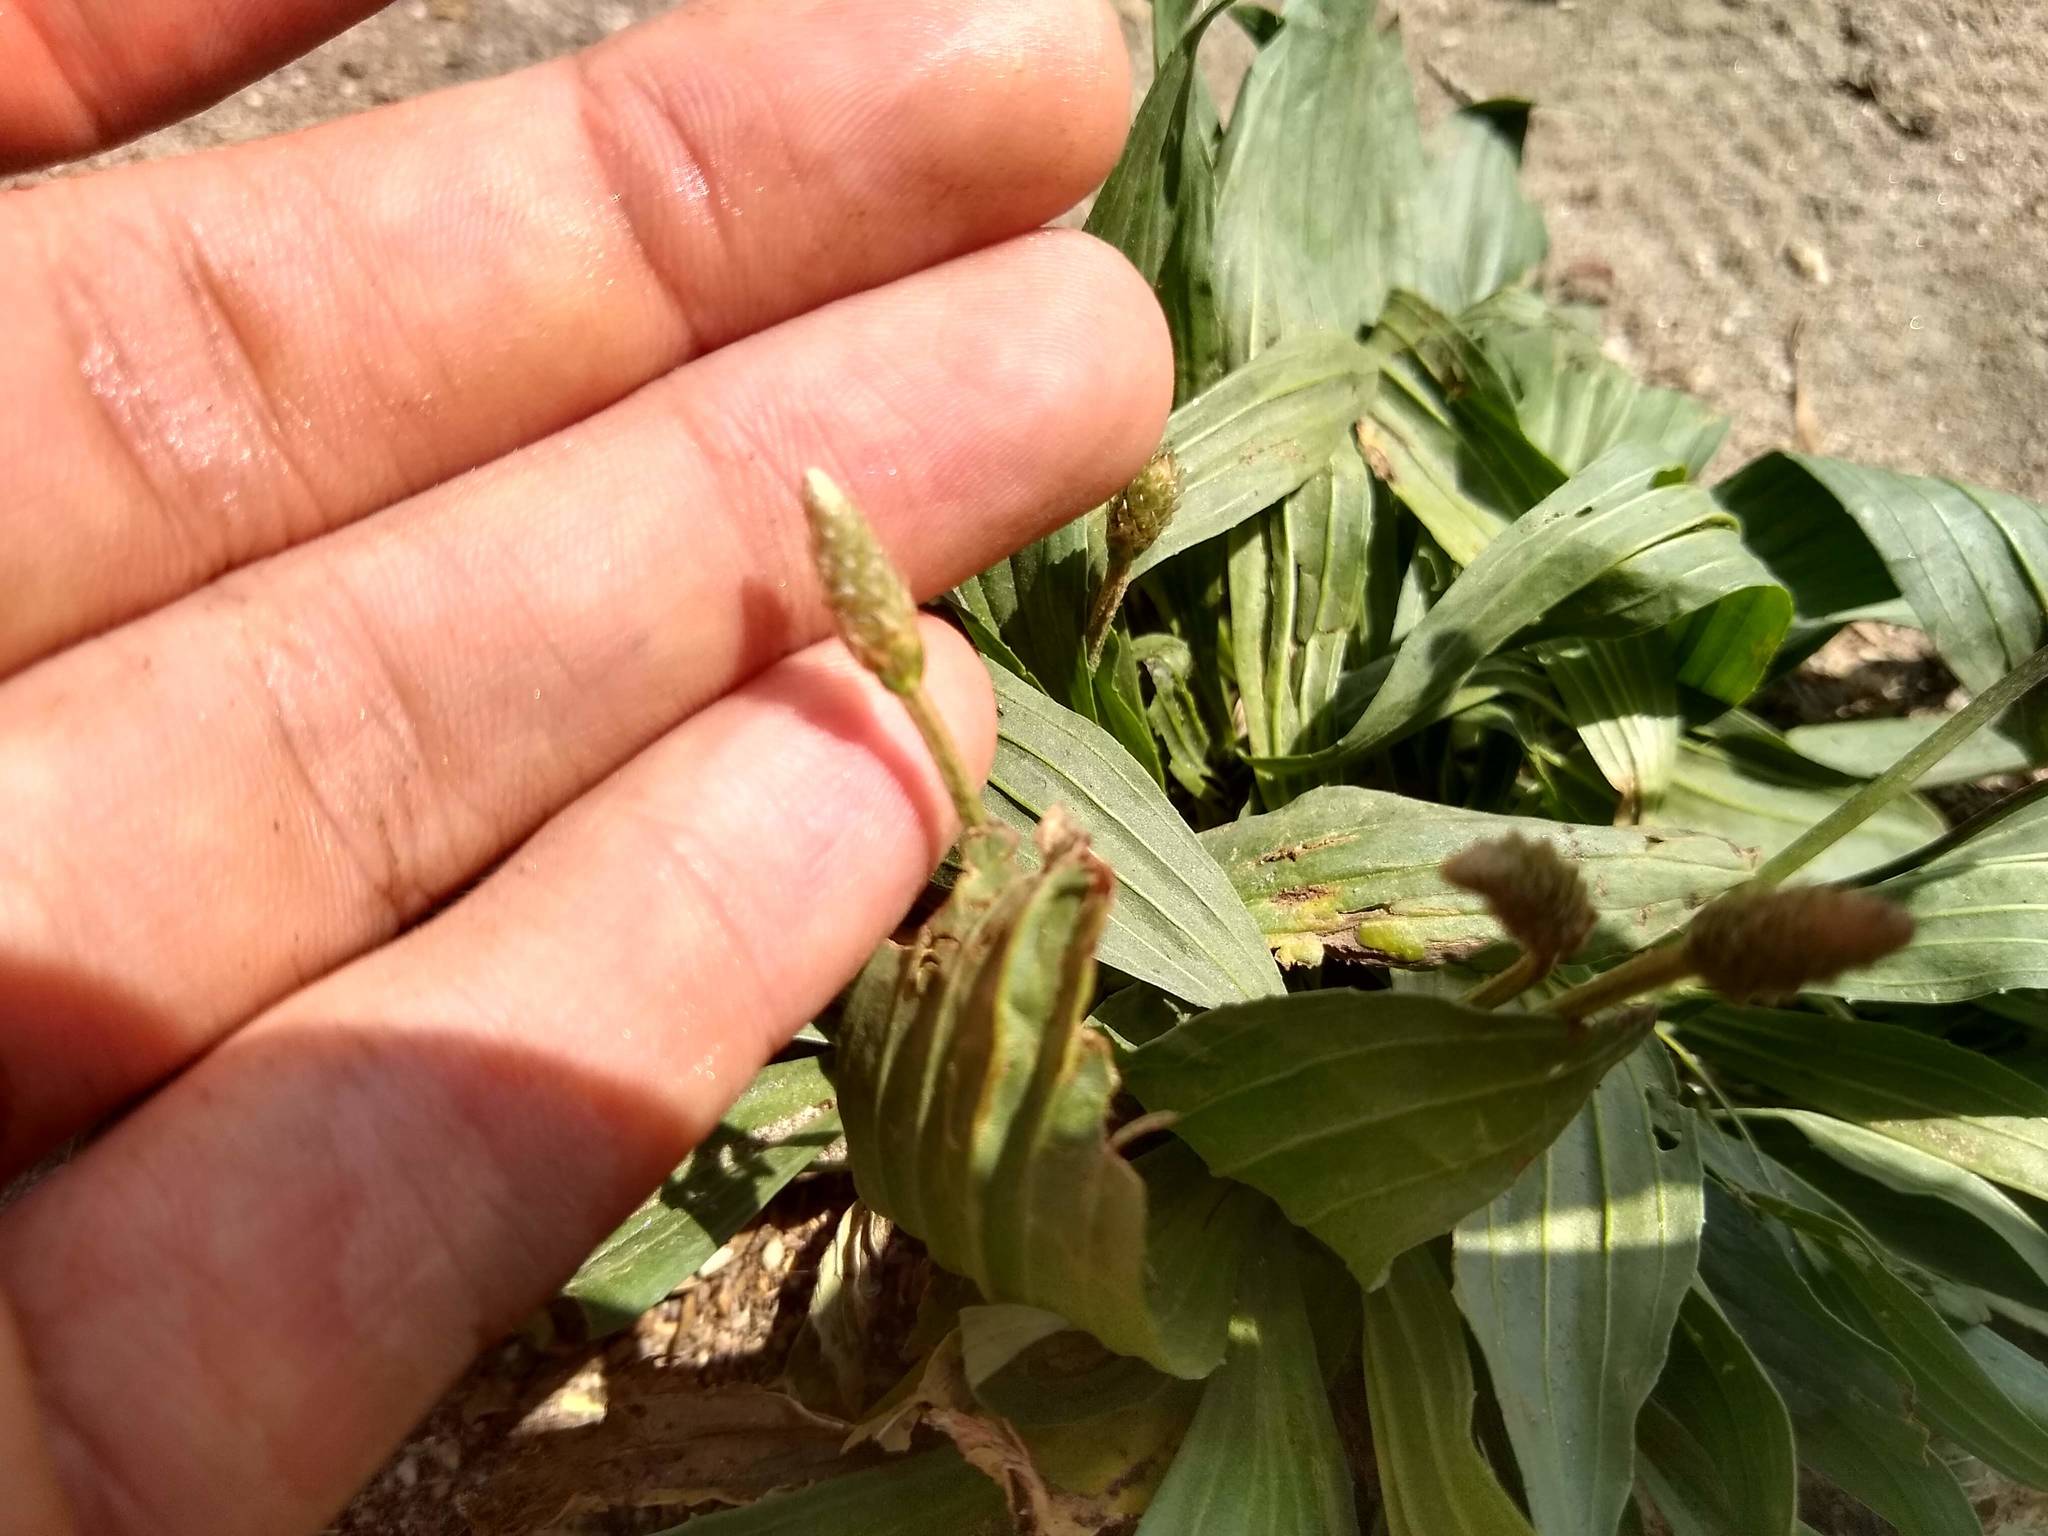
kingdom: Plantae
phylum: Tracheophyta
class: Magnoliopsida
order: Lamiales
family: Plantaginaceae
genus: Plantago
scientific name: Plantago lanceolata
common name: Ribwort plantain
